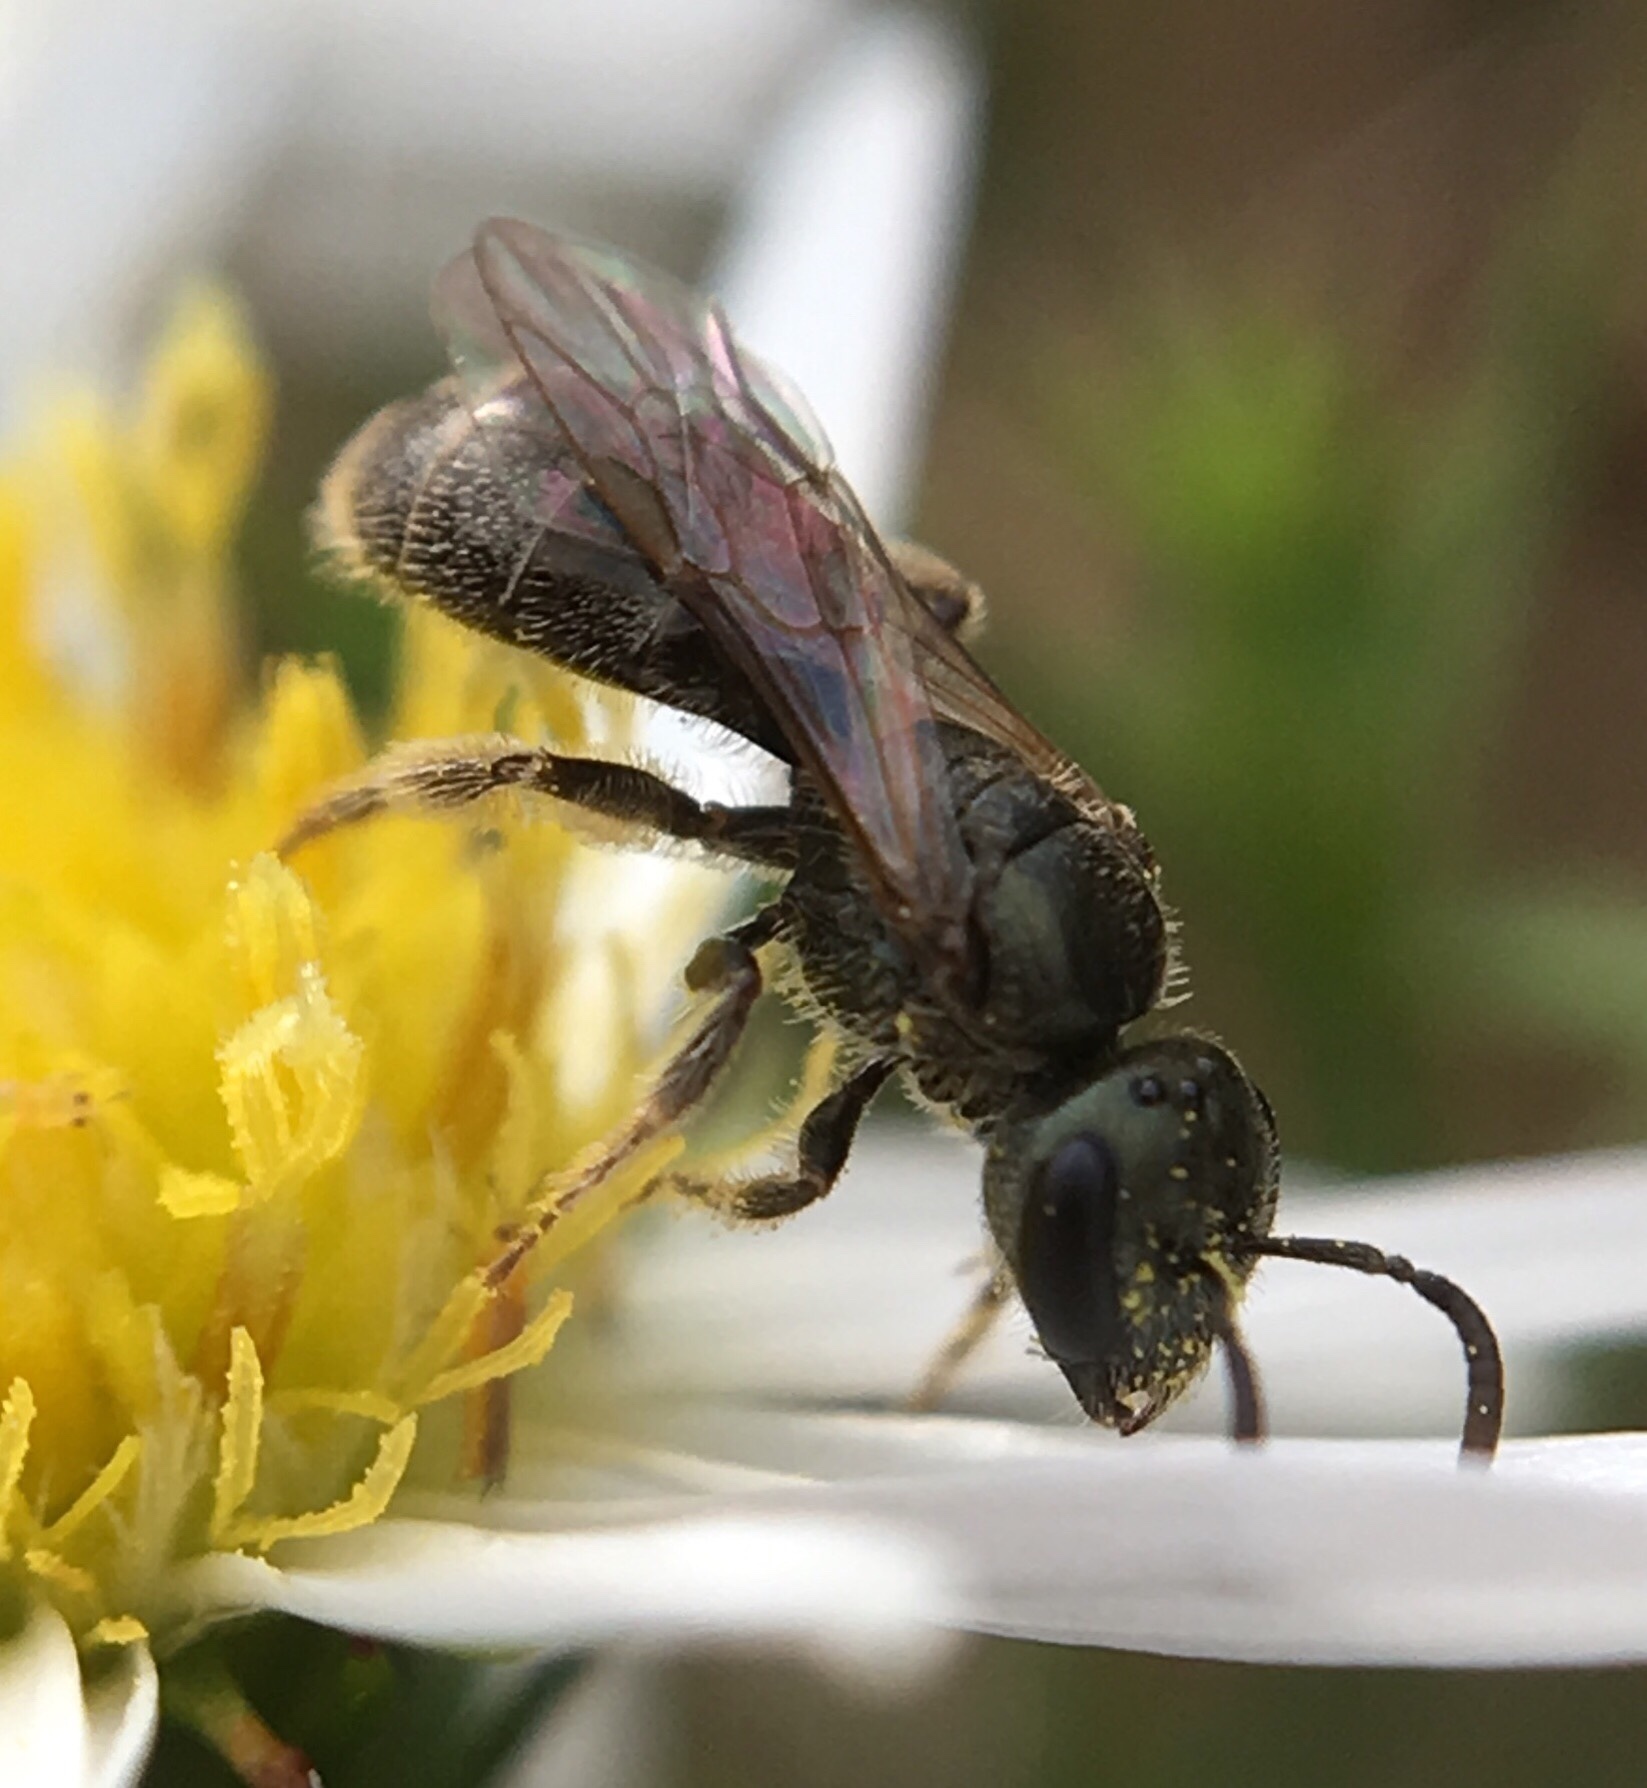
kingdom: Animalia
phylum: Arthropoda
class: Insecta
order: Hymenoptera
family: Halictidae
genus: Lasioglossum
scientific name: Lasioglossum imitatum
